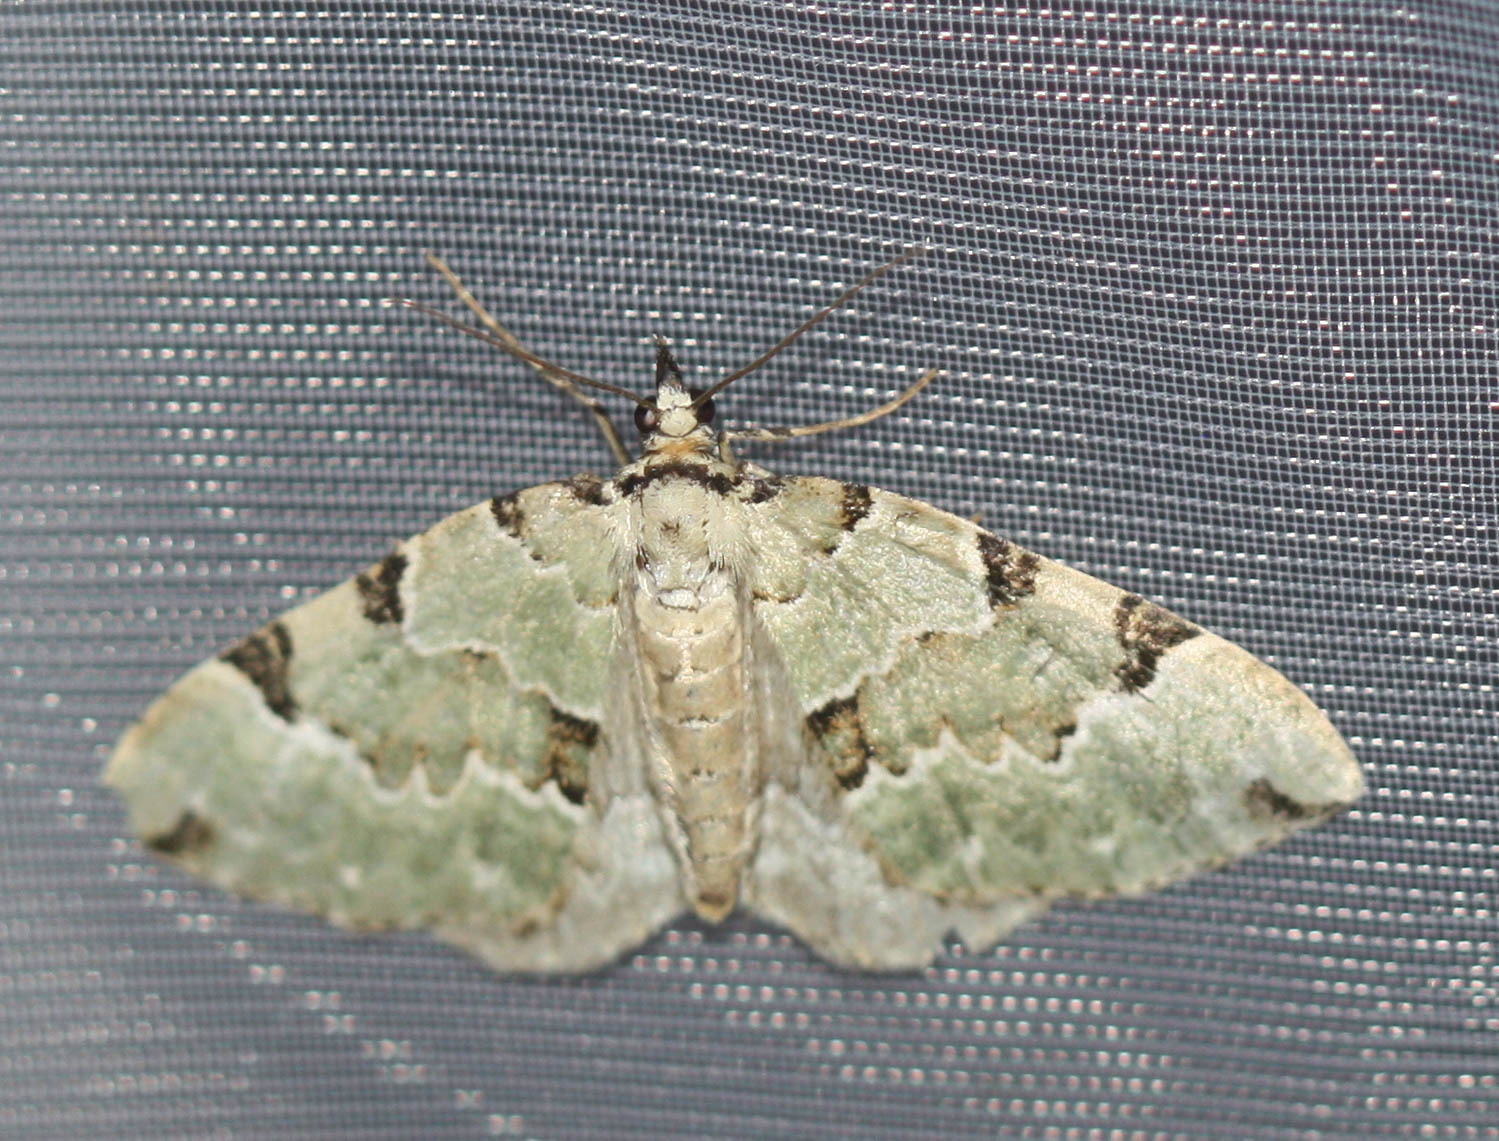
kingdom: Animalia
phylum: Arthropoda
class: Insecta
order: Lepidoptera
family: Geometridae
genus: Colostygia
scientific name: Colostygia pectinataria
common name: Green carpet
